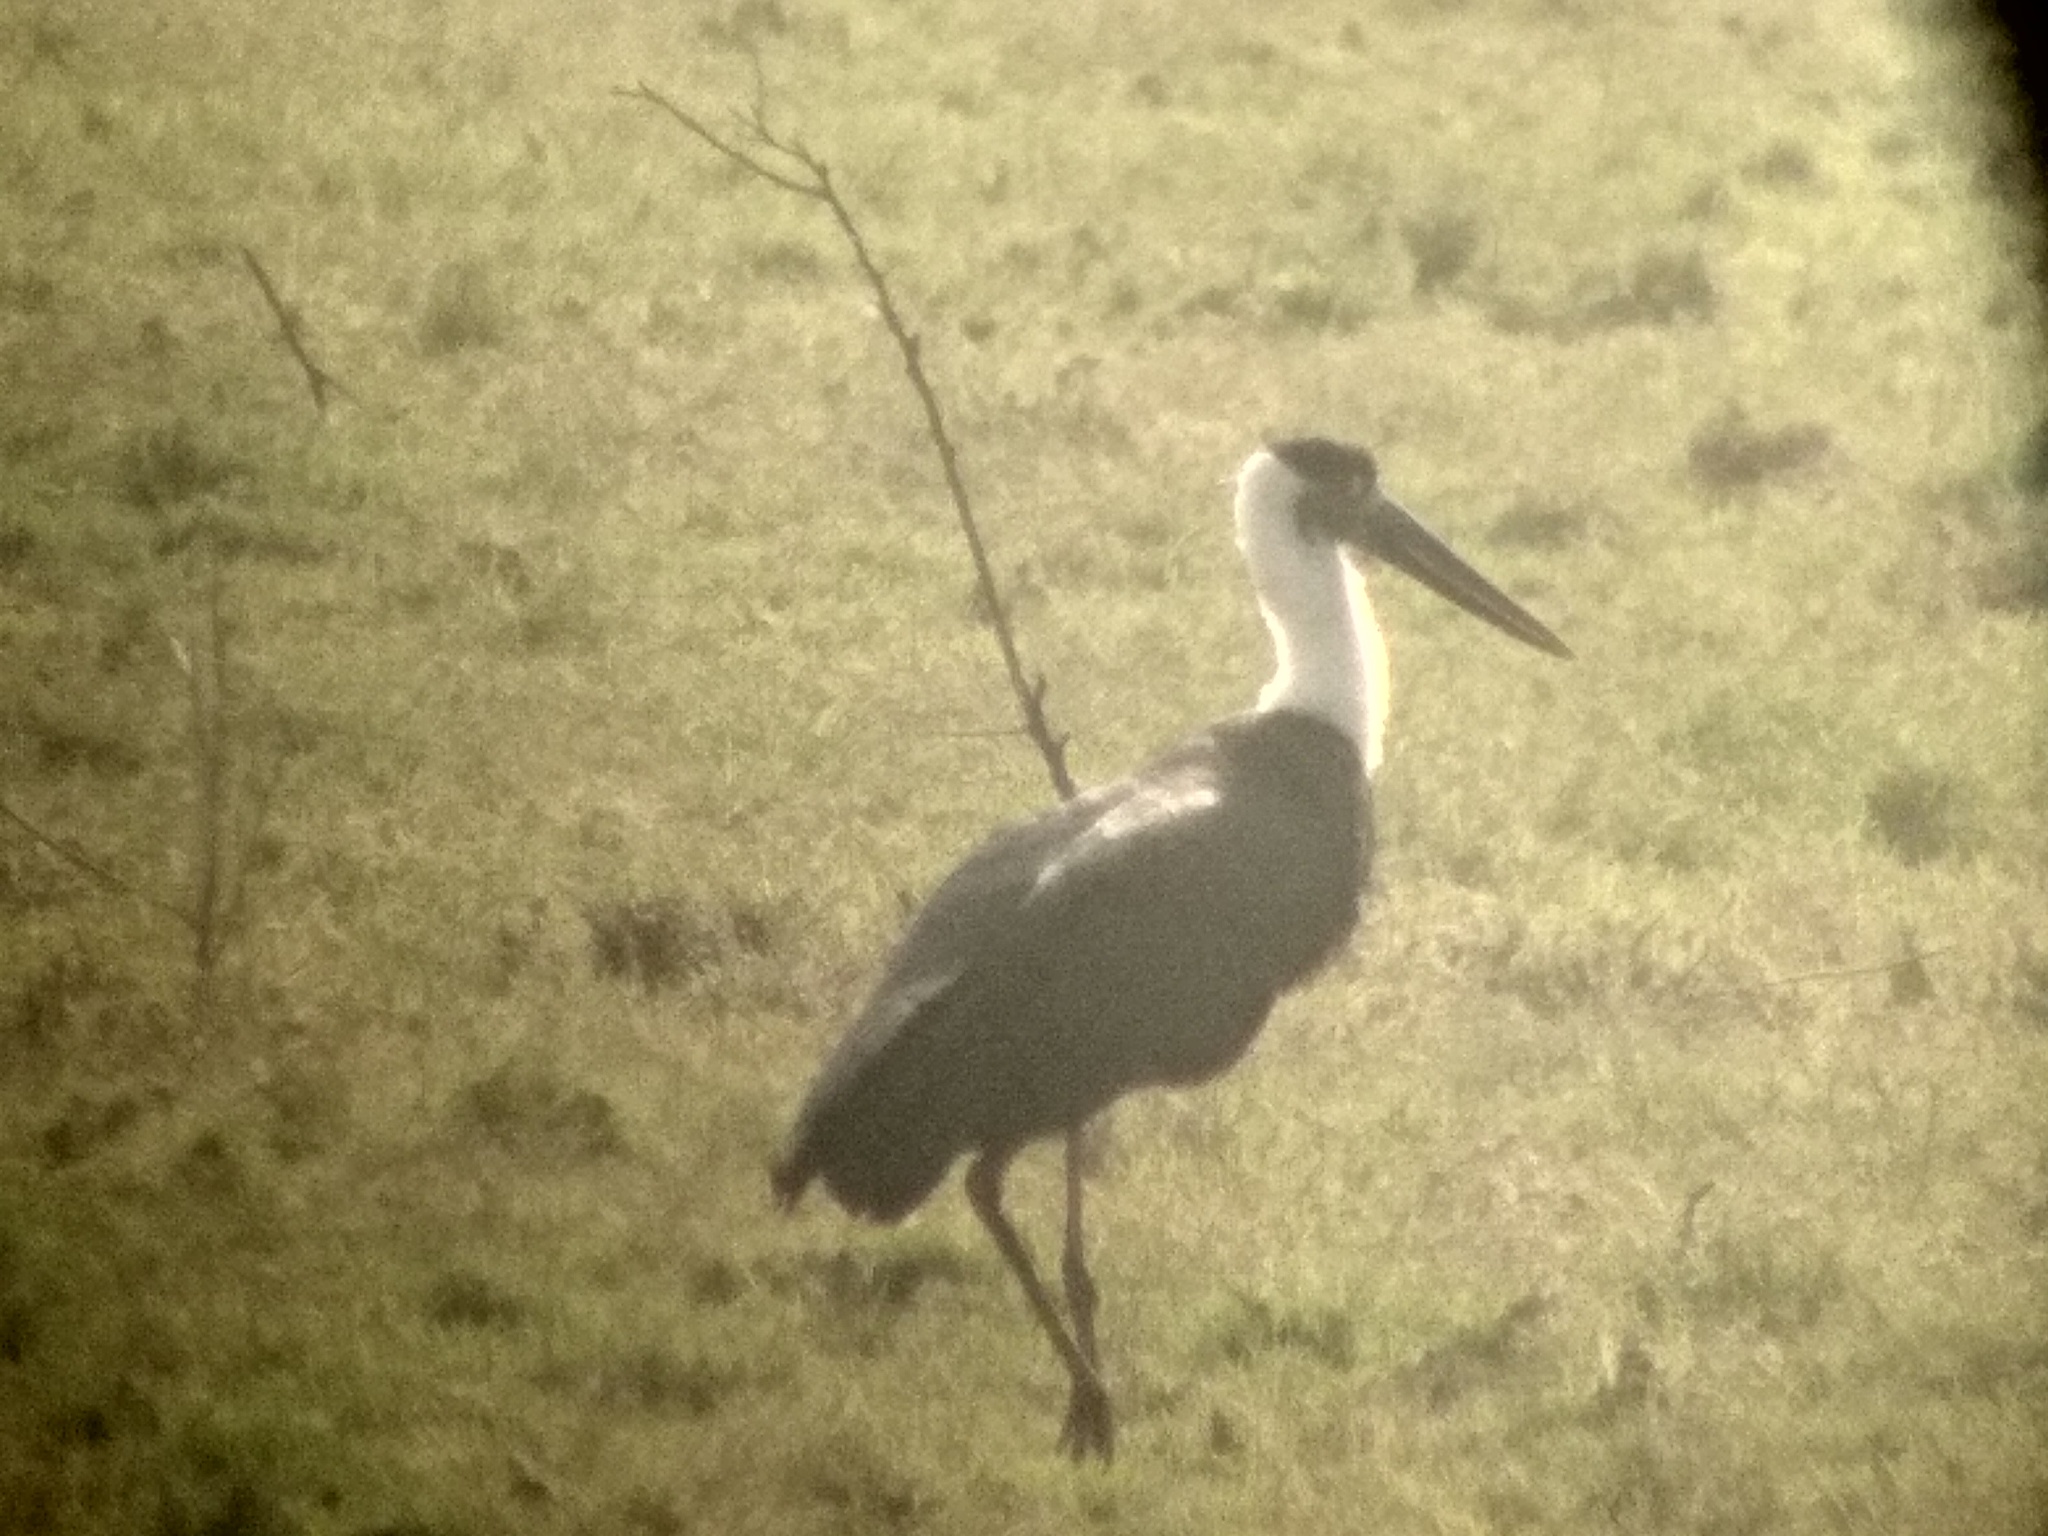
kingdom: Animalia
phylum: Chordata
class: Aves
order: Ciconiiformes
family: Ciconiidae
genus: Ciconia
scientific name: Ciconia episcopus
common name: Woolly-necked stork
